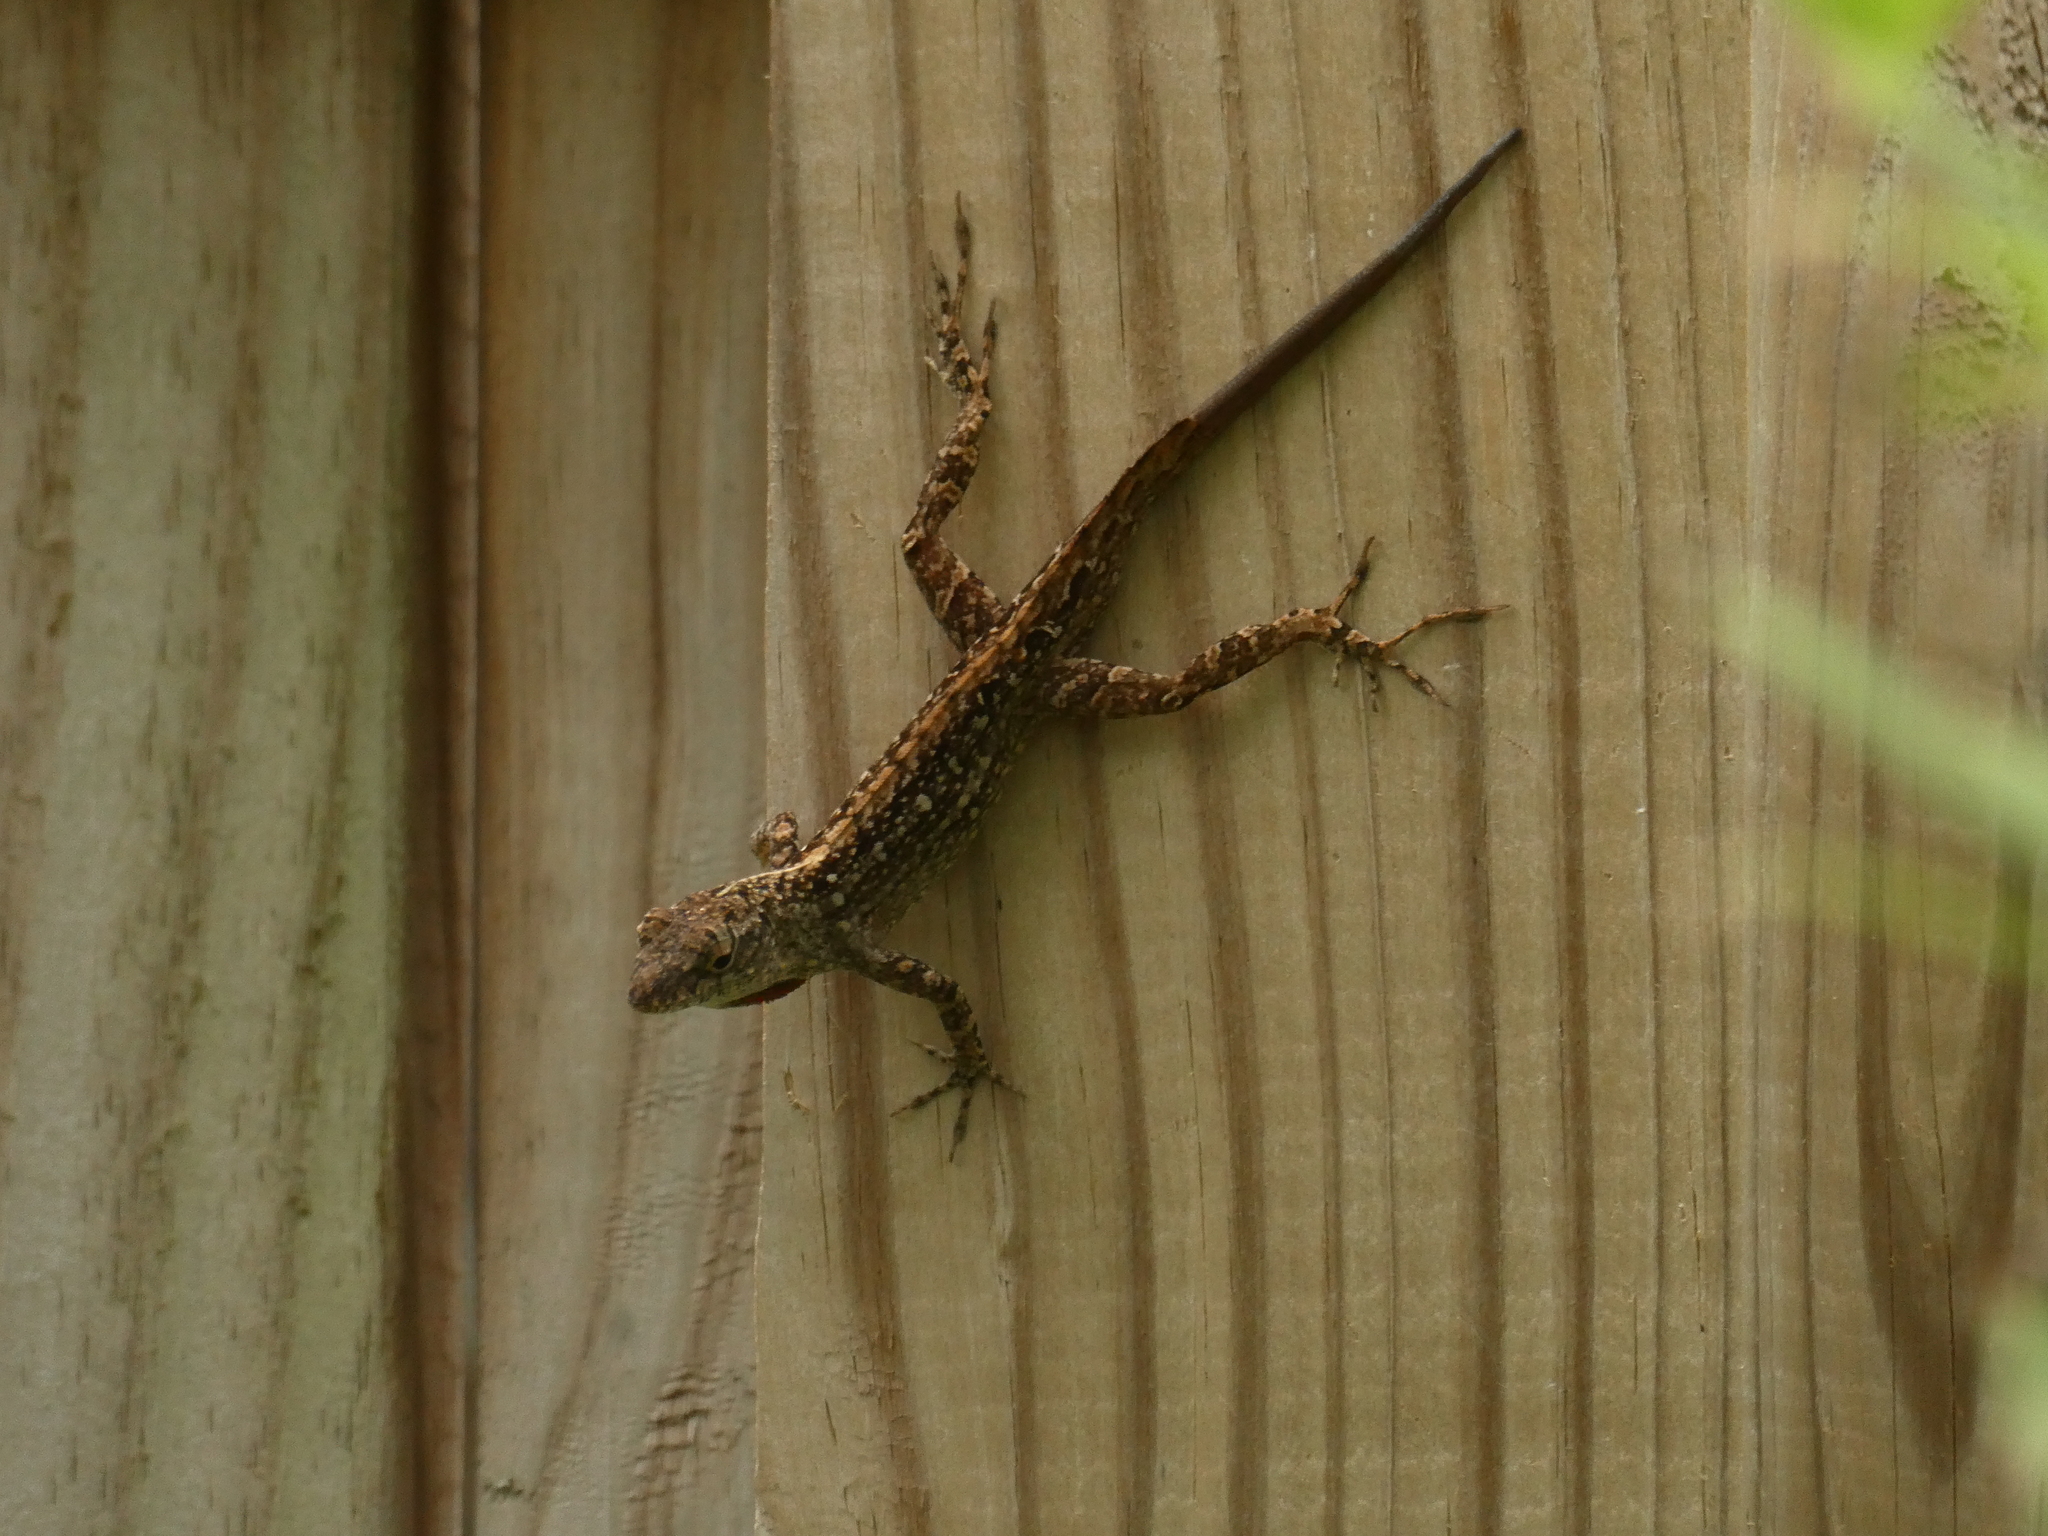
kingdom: Animalia
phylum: Chordata
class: Squamata
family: Dactyloidae
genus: Anolis
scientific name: Anolis sagrei
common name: Brown anole
